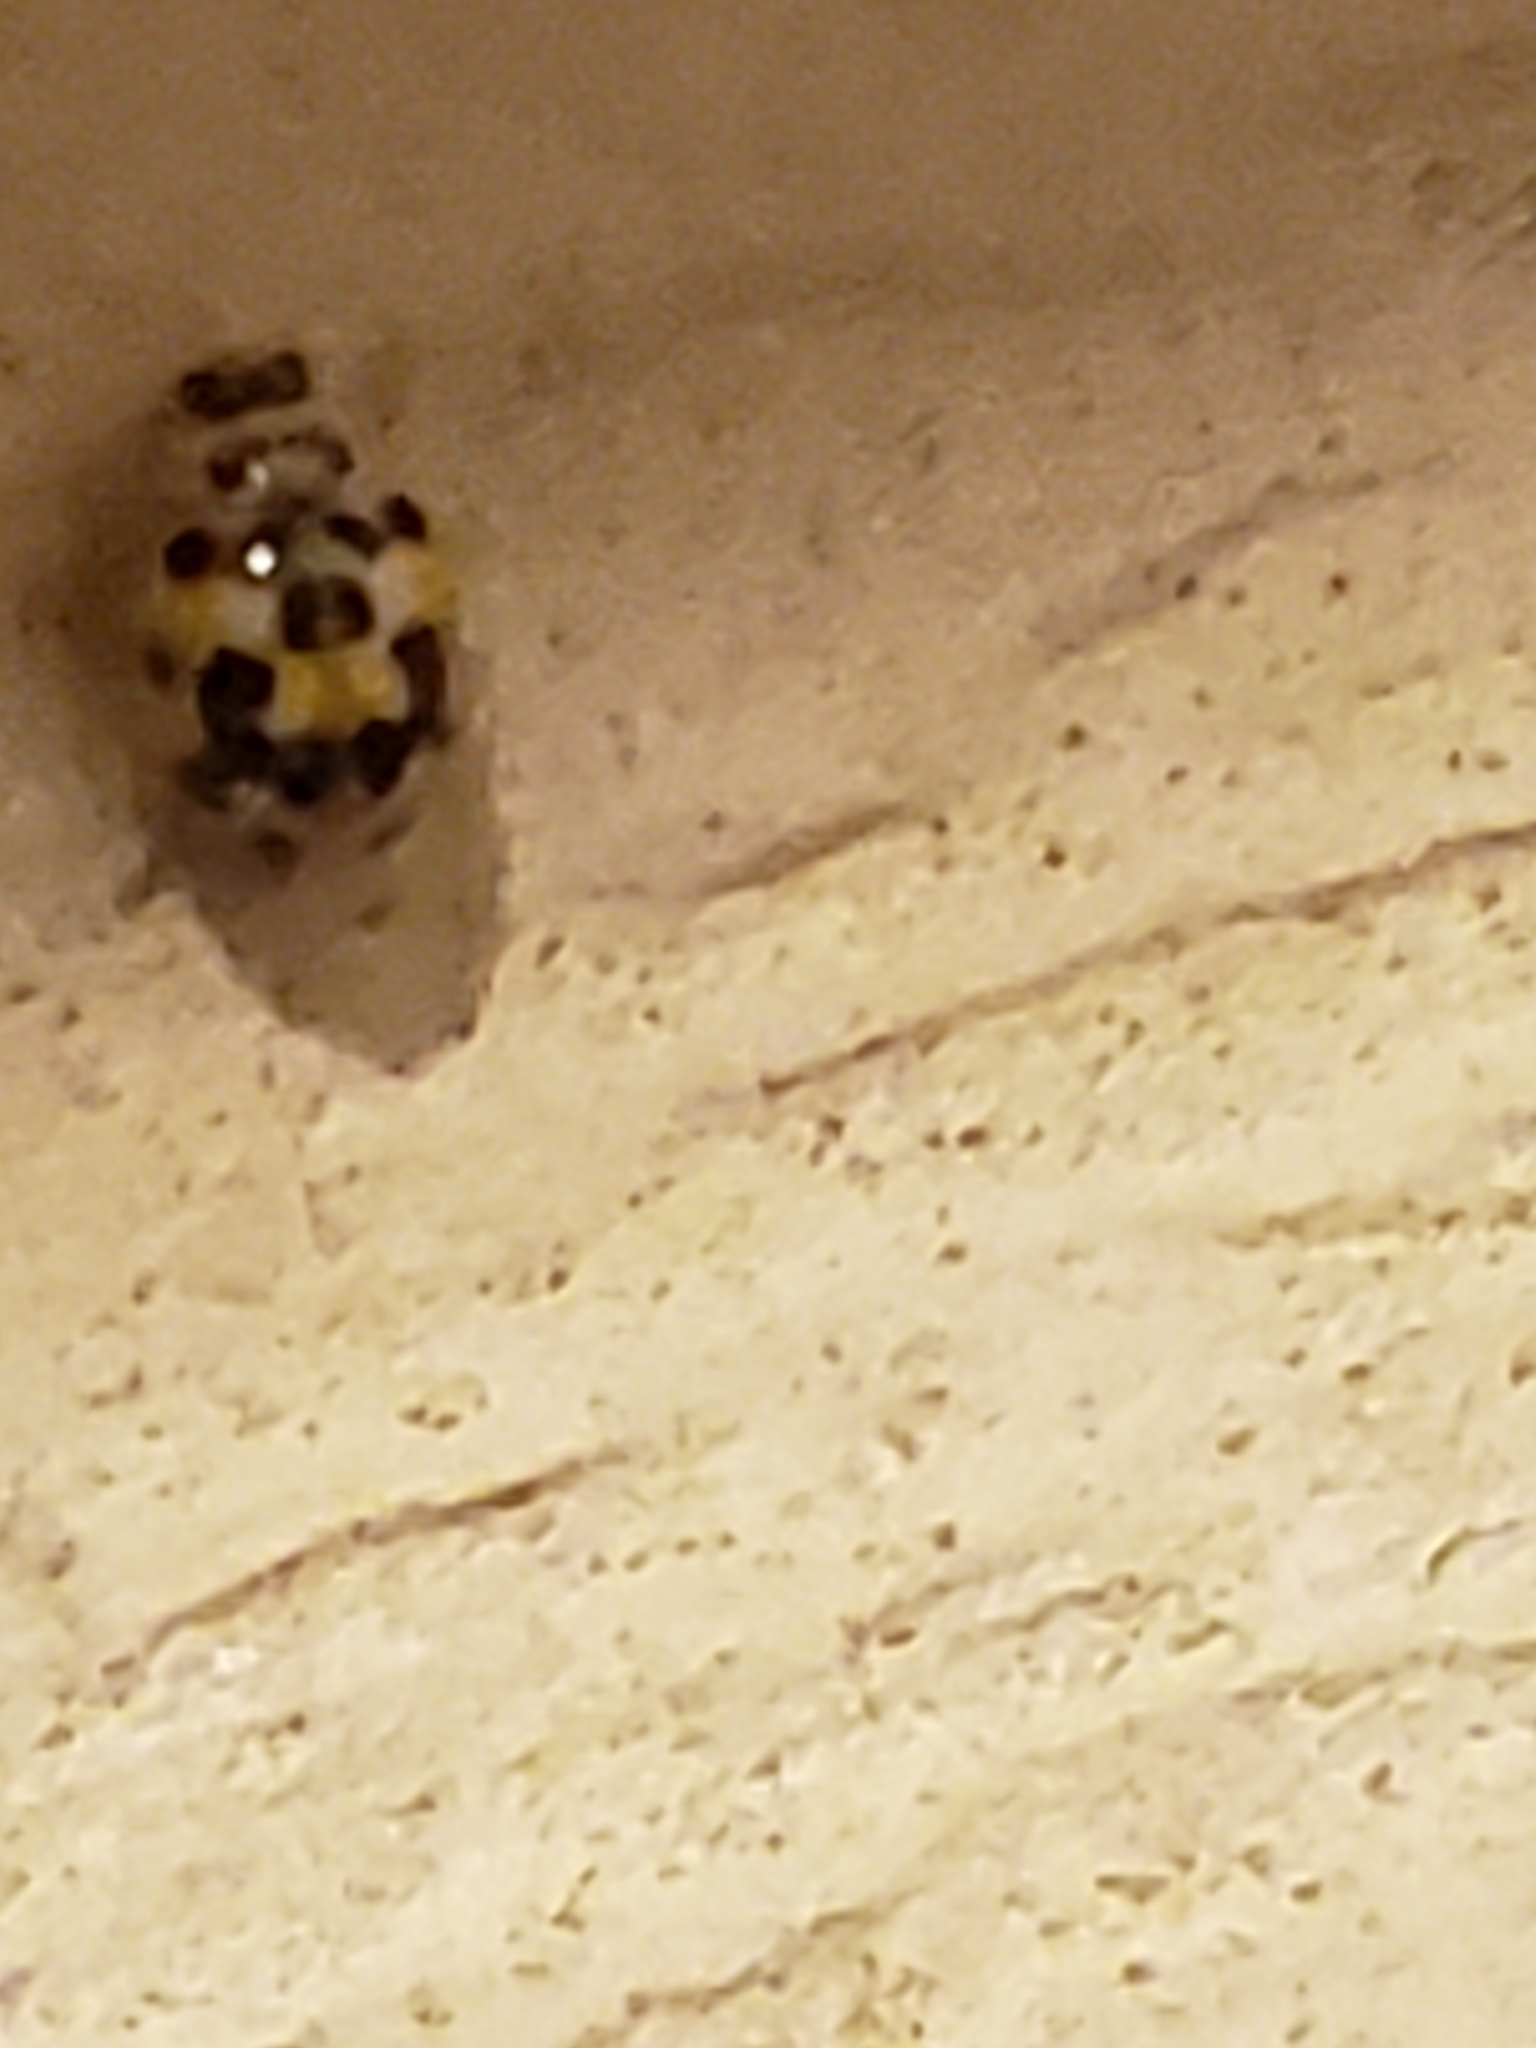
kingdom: Animalia
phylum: Arthropoda
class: Insecta
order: Coleoptera
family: Coccinellidae
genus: Psyllobora
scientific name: Psyllobora vigintimaculata
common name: Ladybird beetle
